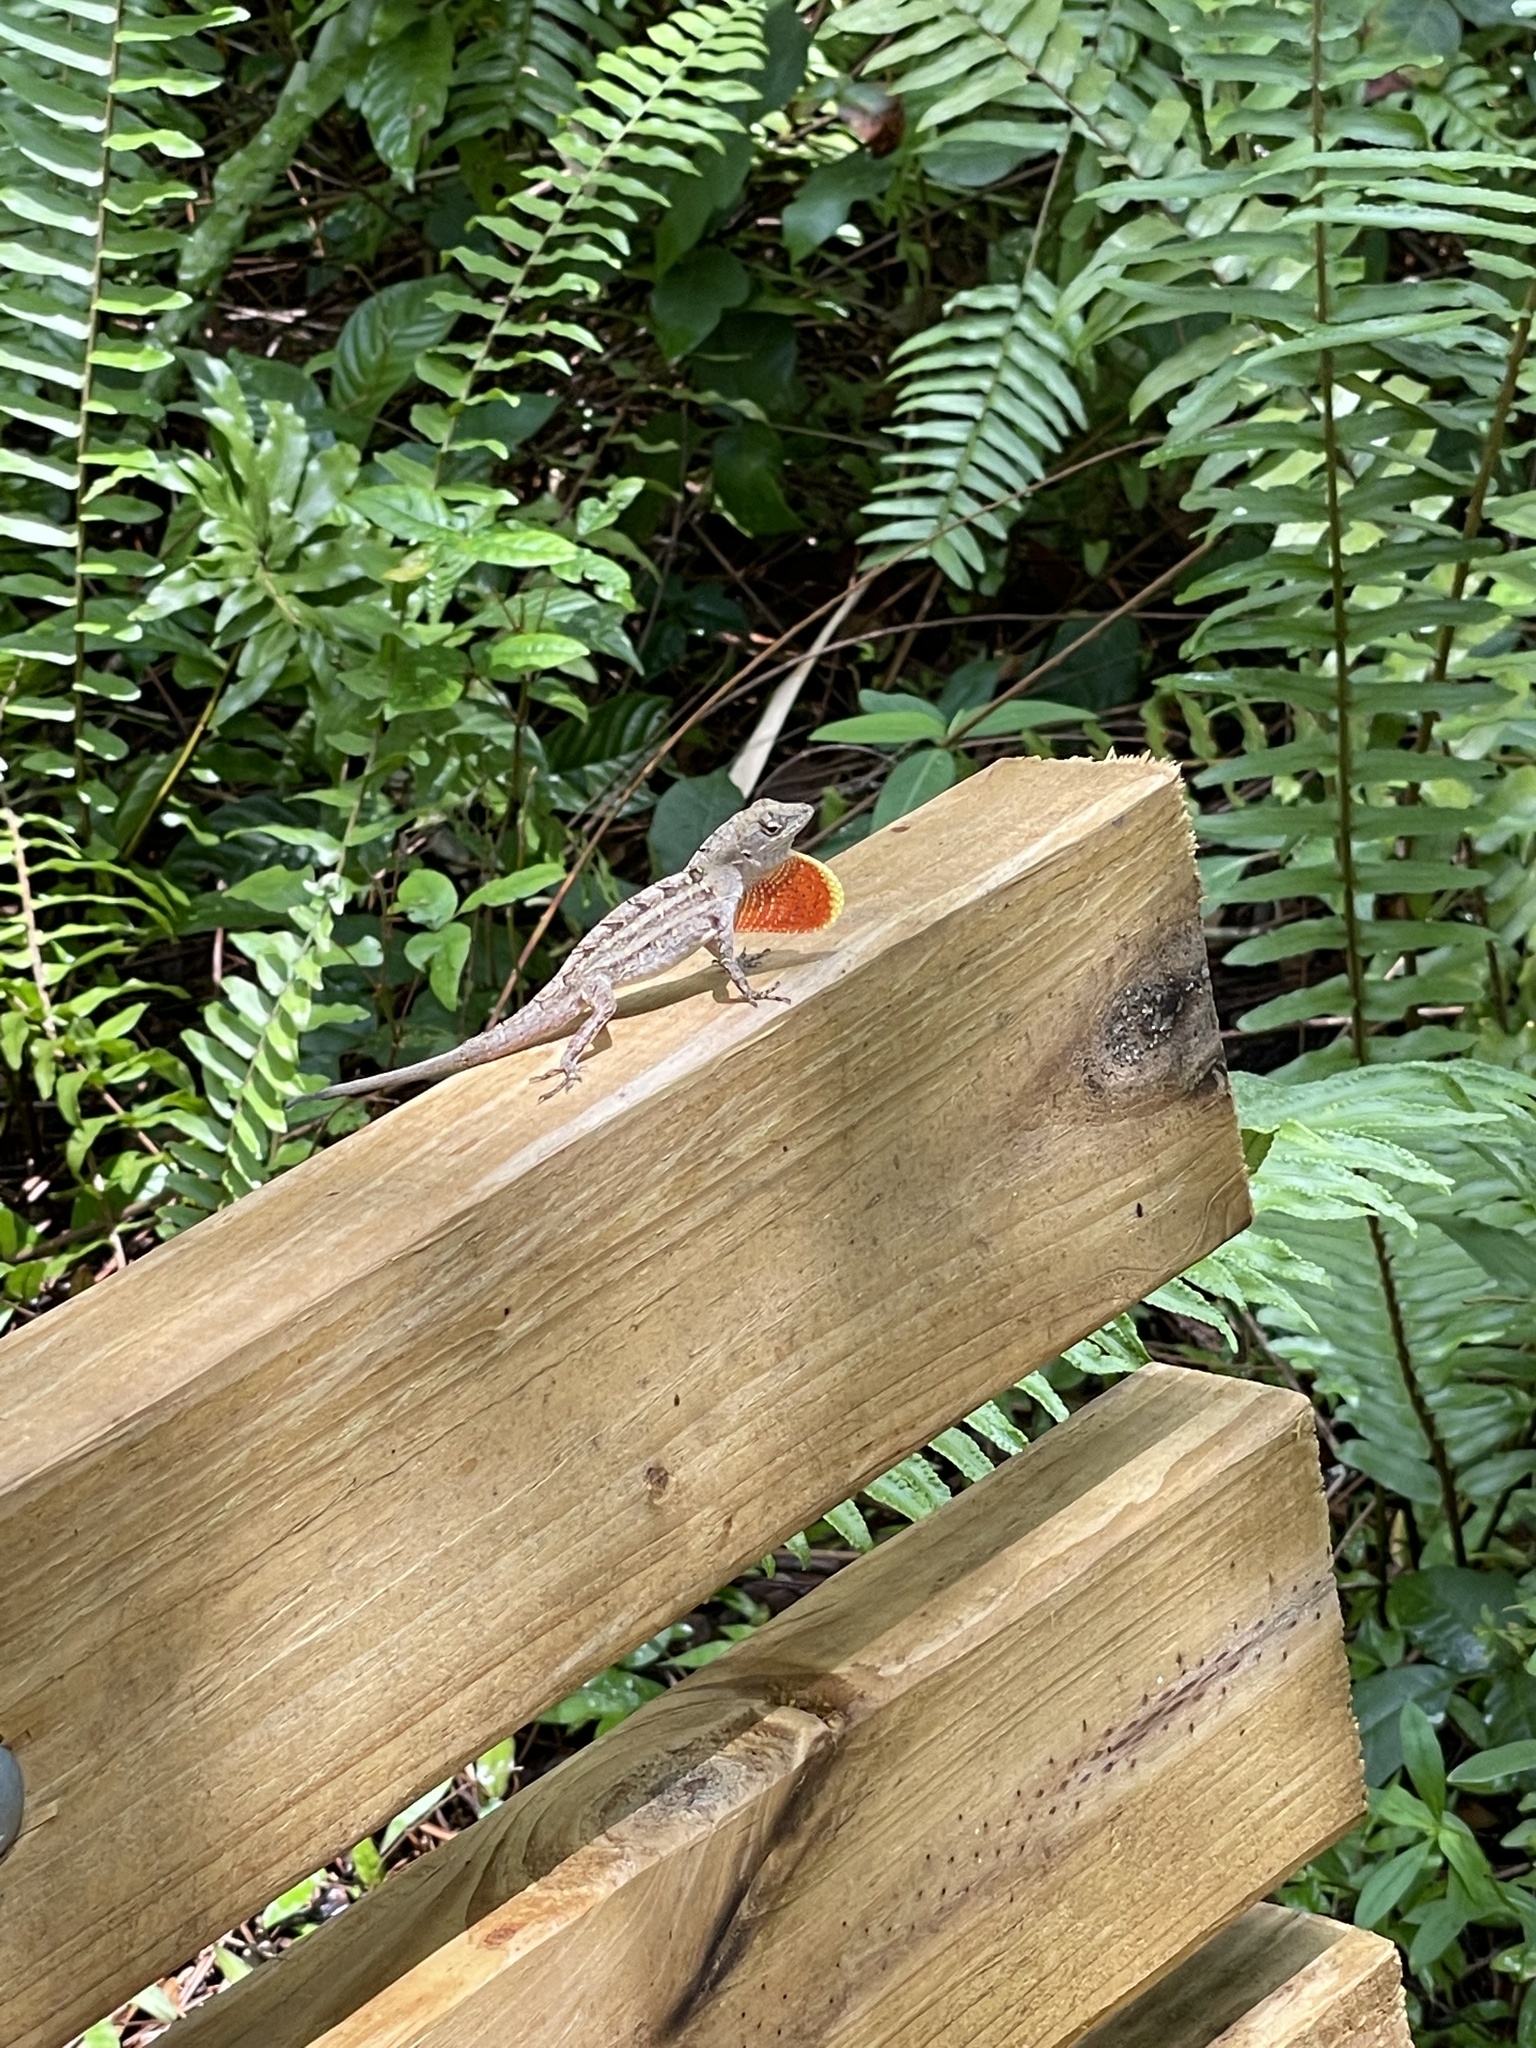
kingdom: Animalia
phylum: Chordata
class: Squamata
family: Dactyloidae
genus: Anolis
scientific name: Anolis sagrei
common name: Brown anole
